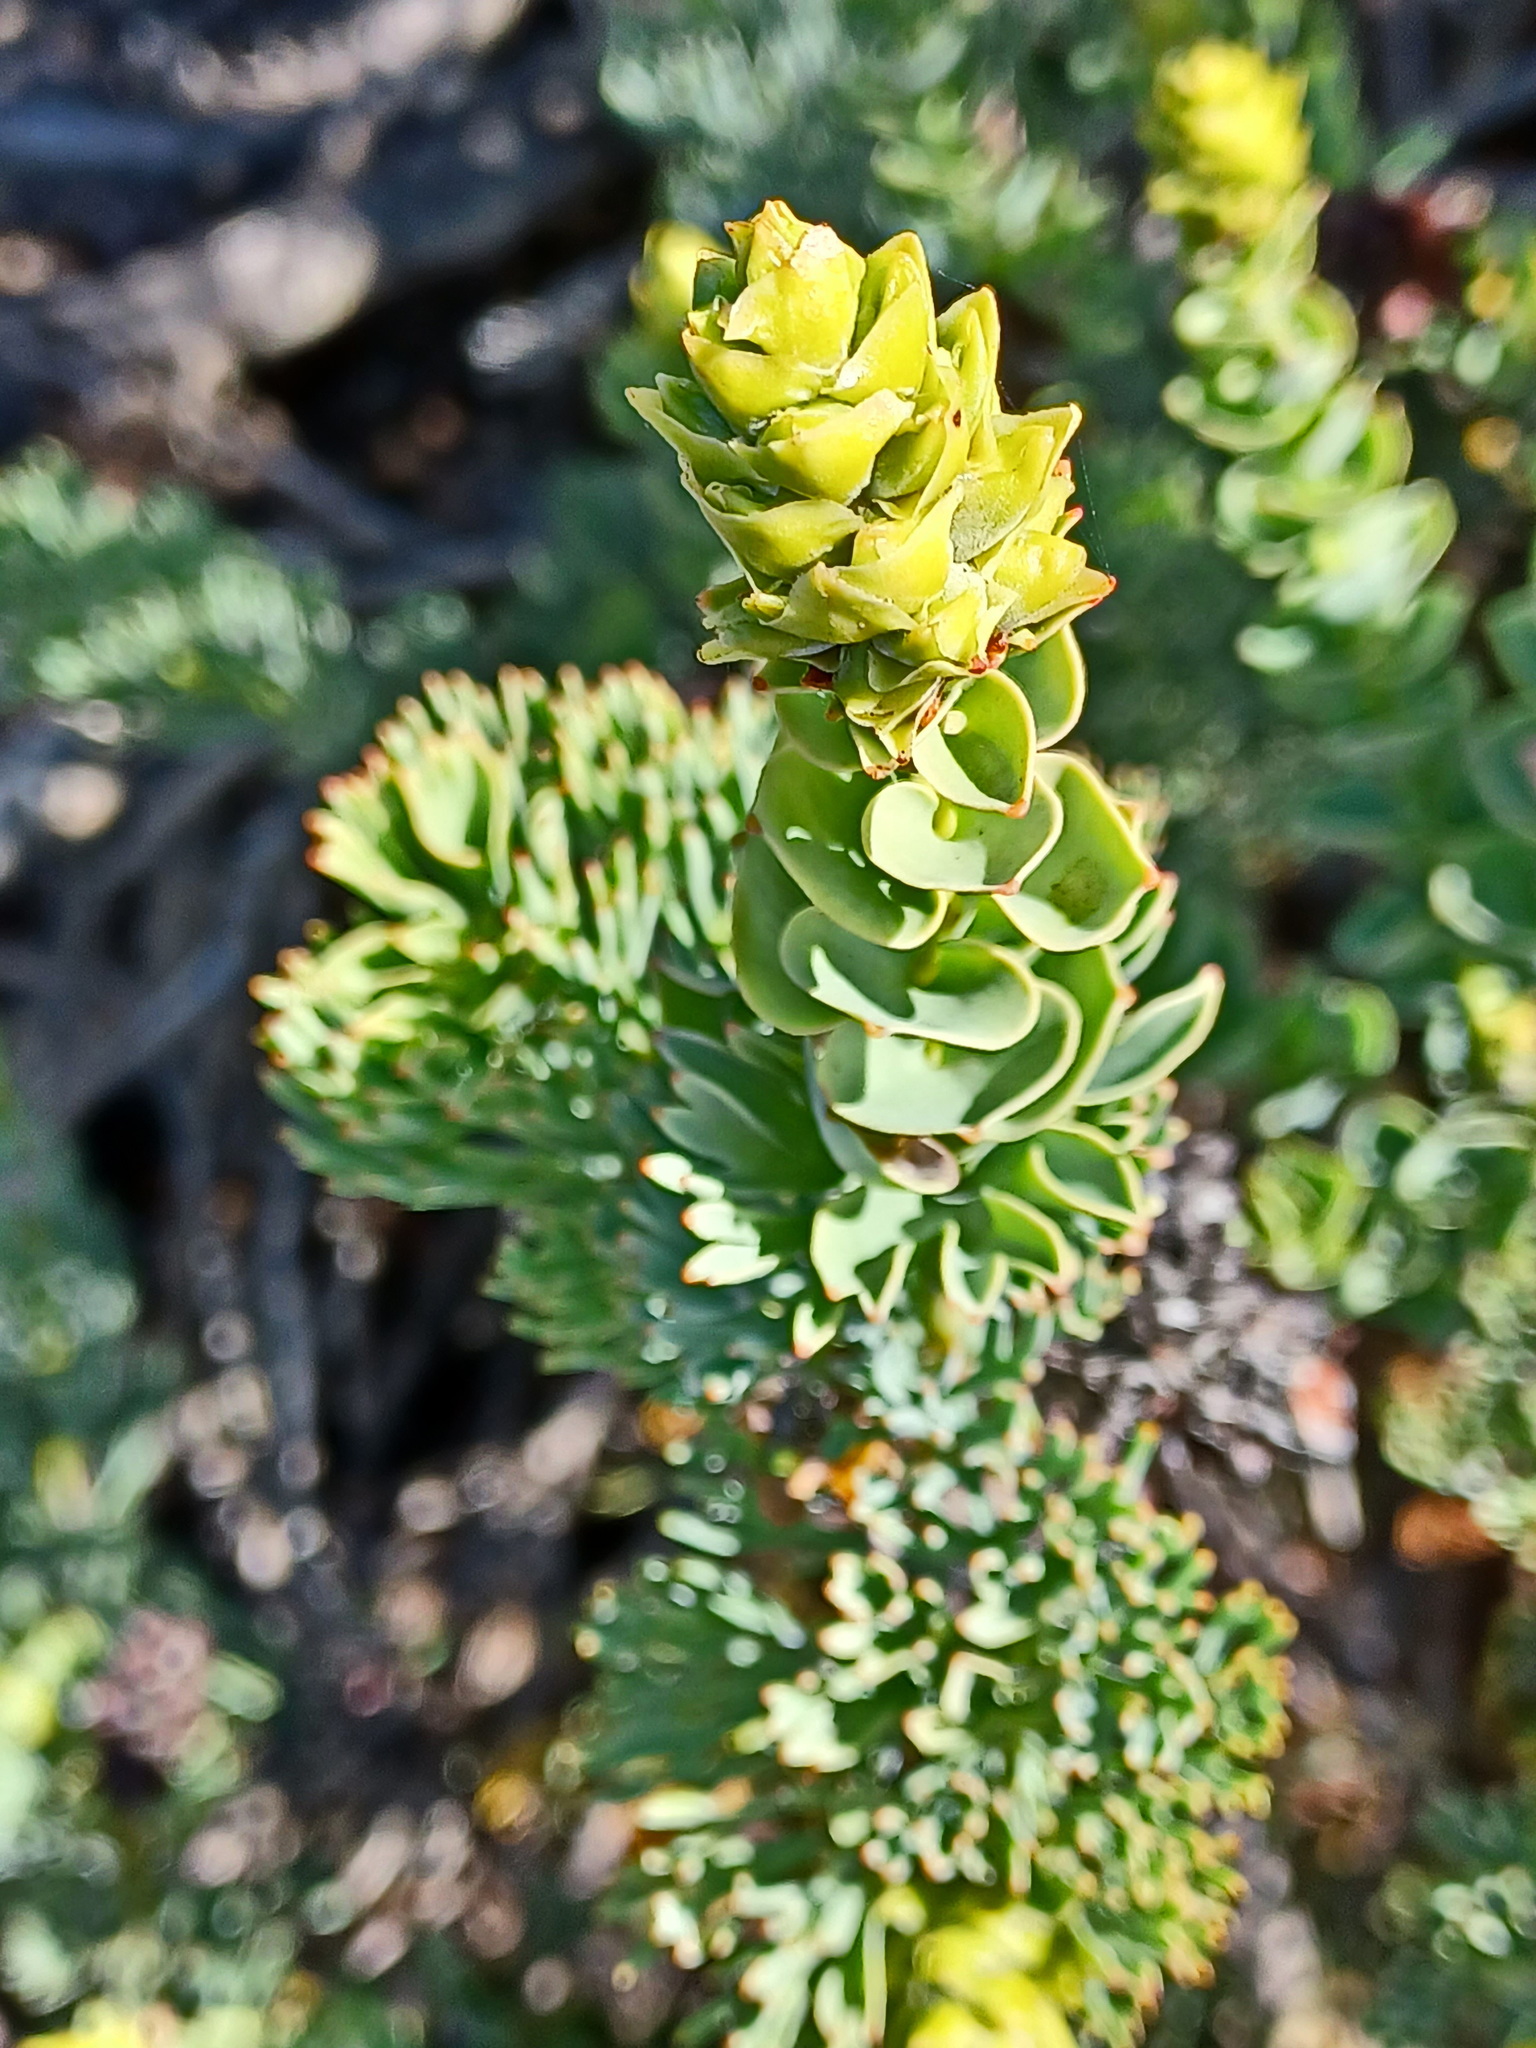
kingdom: Plantae
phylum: Tracheophyta
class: Magnoliopsida
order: Proteales
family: Proteaceae
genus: Paranomus
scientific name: Paranomus roodebergensis
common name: Honey-scented sceptre
